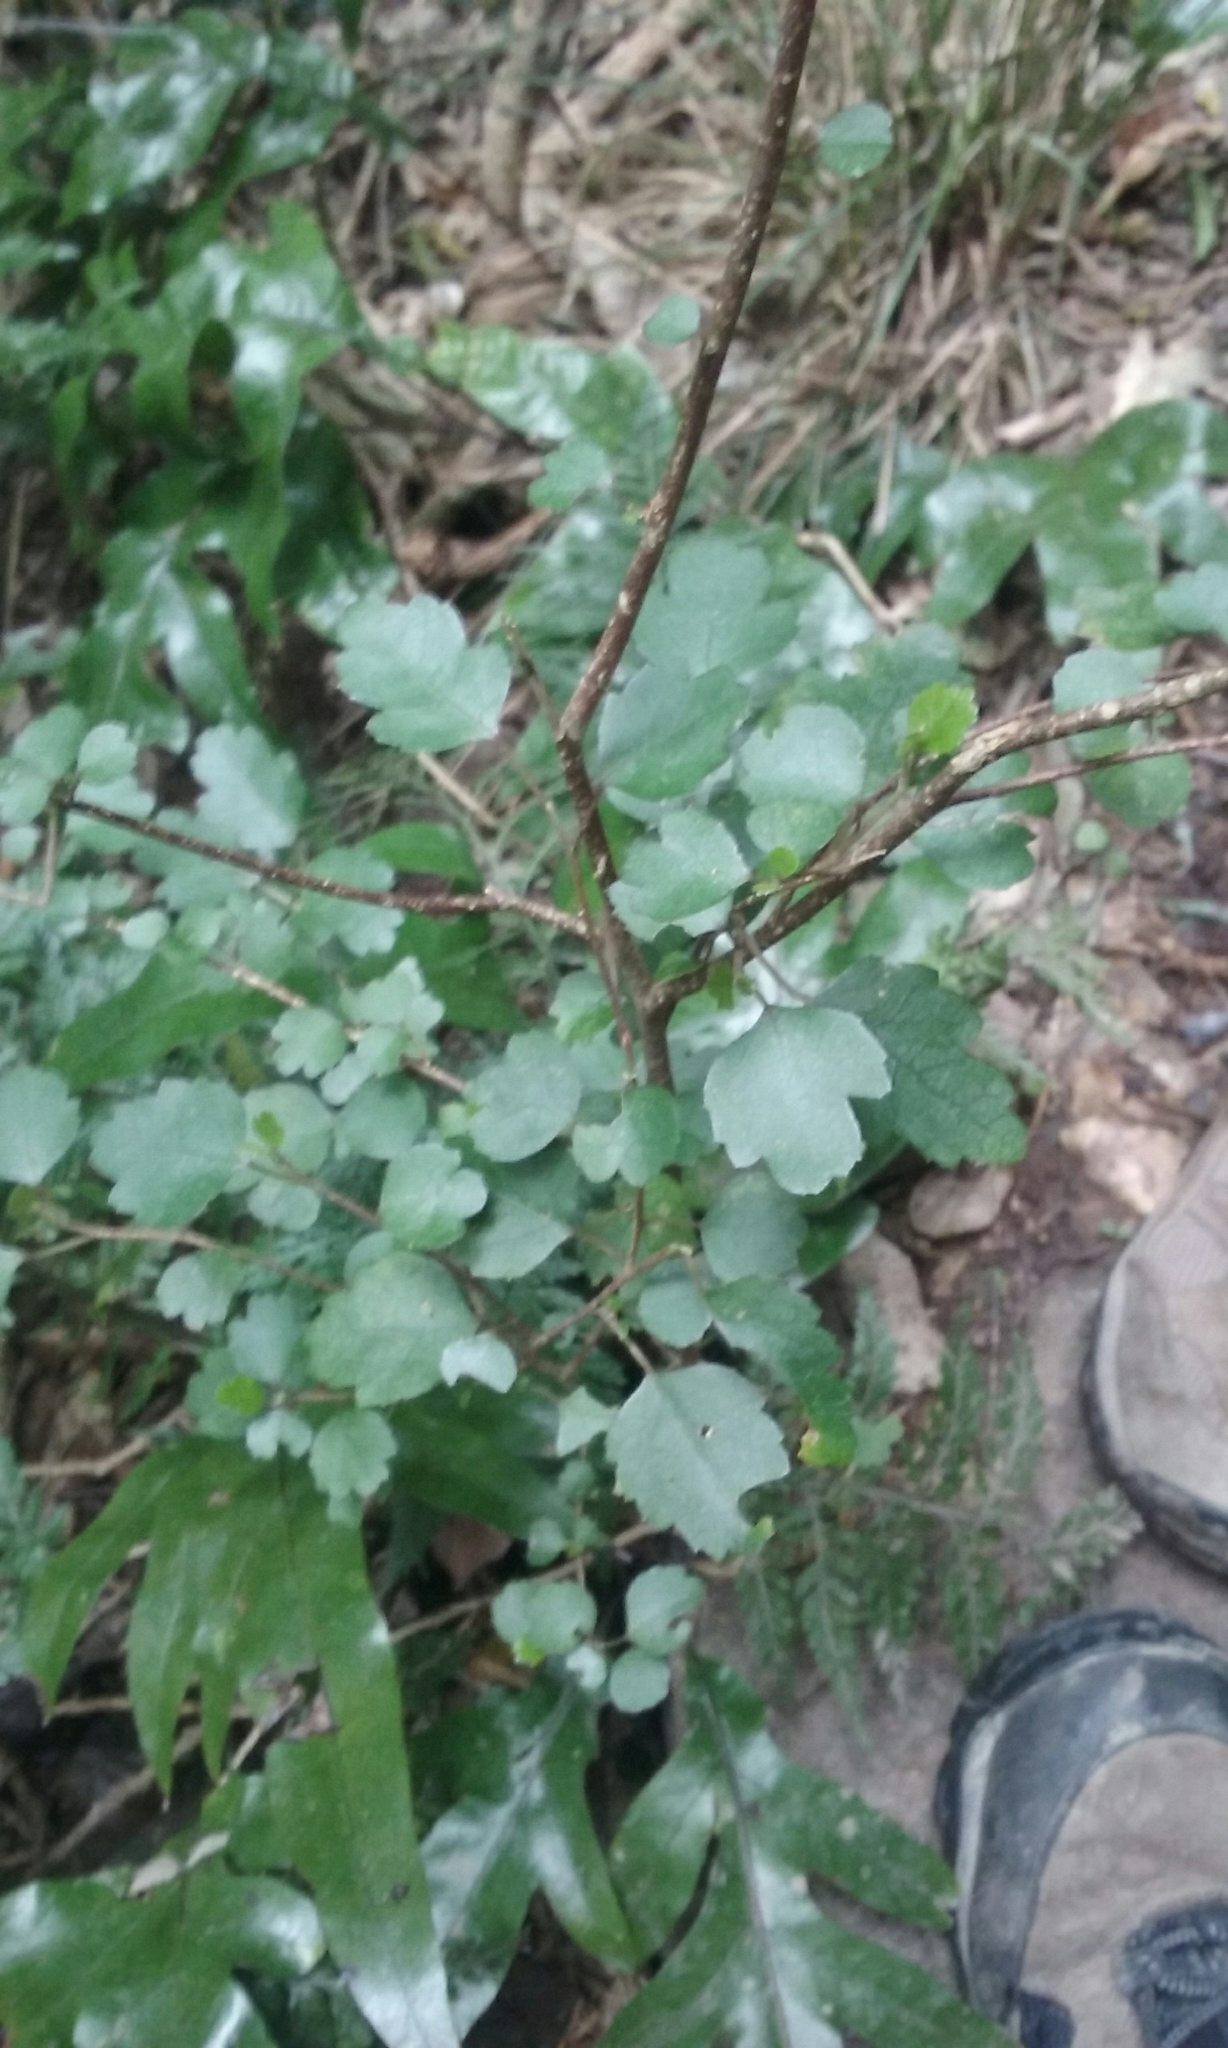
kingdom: Plantae
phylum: Tracheophyta
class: Magnoliopsida
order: Malvales
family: Malvaceae
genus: Hoheria
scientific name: Hoheria populnea
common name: Lacebark
